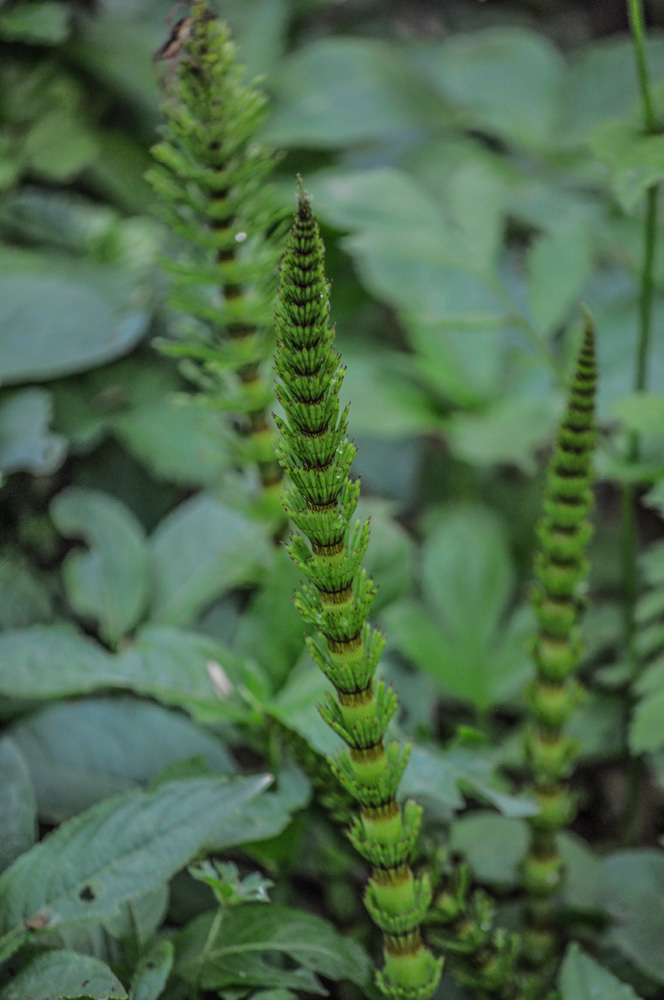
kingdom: Plantae
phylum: Tracheophyta
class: Polypodiopsida
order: Equisetales
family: Equisetaceae
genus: Equisetum
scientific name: Equisetum telmateia
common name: Great horsetail
